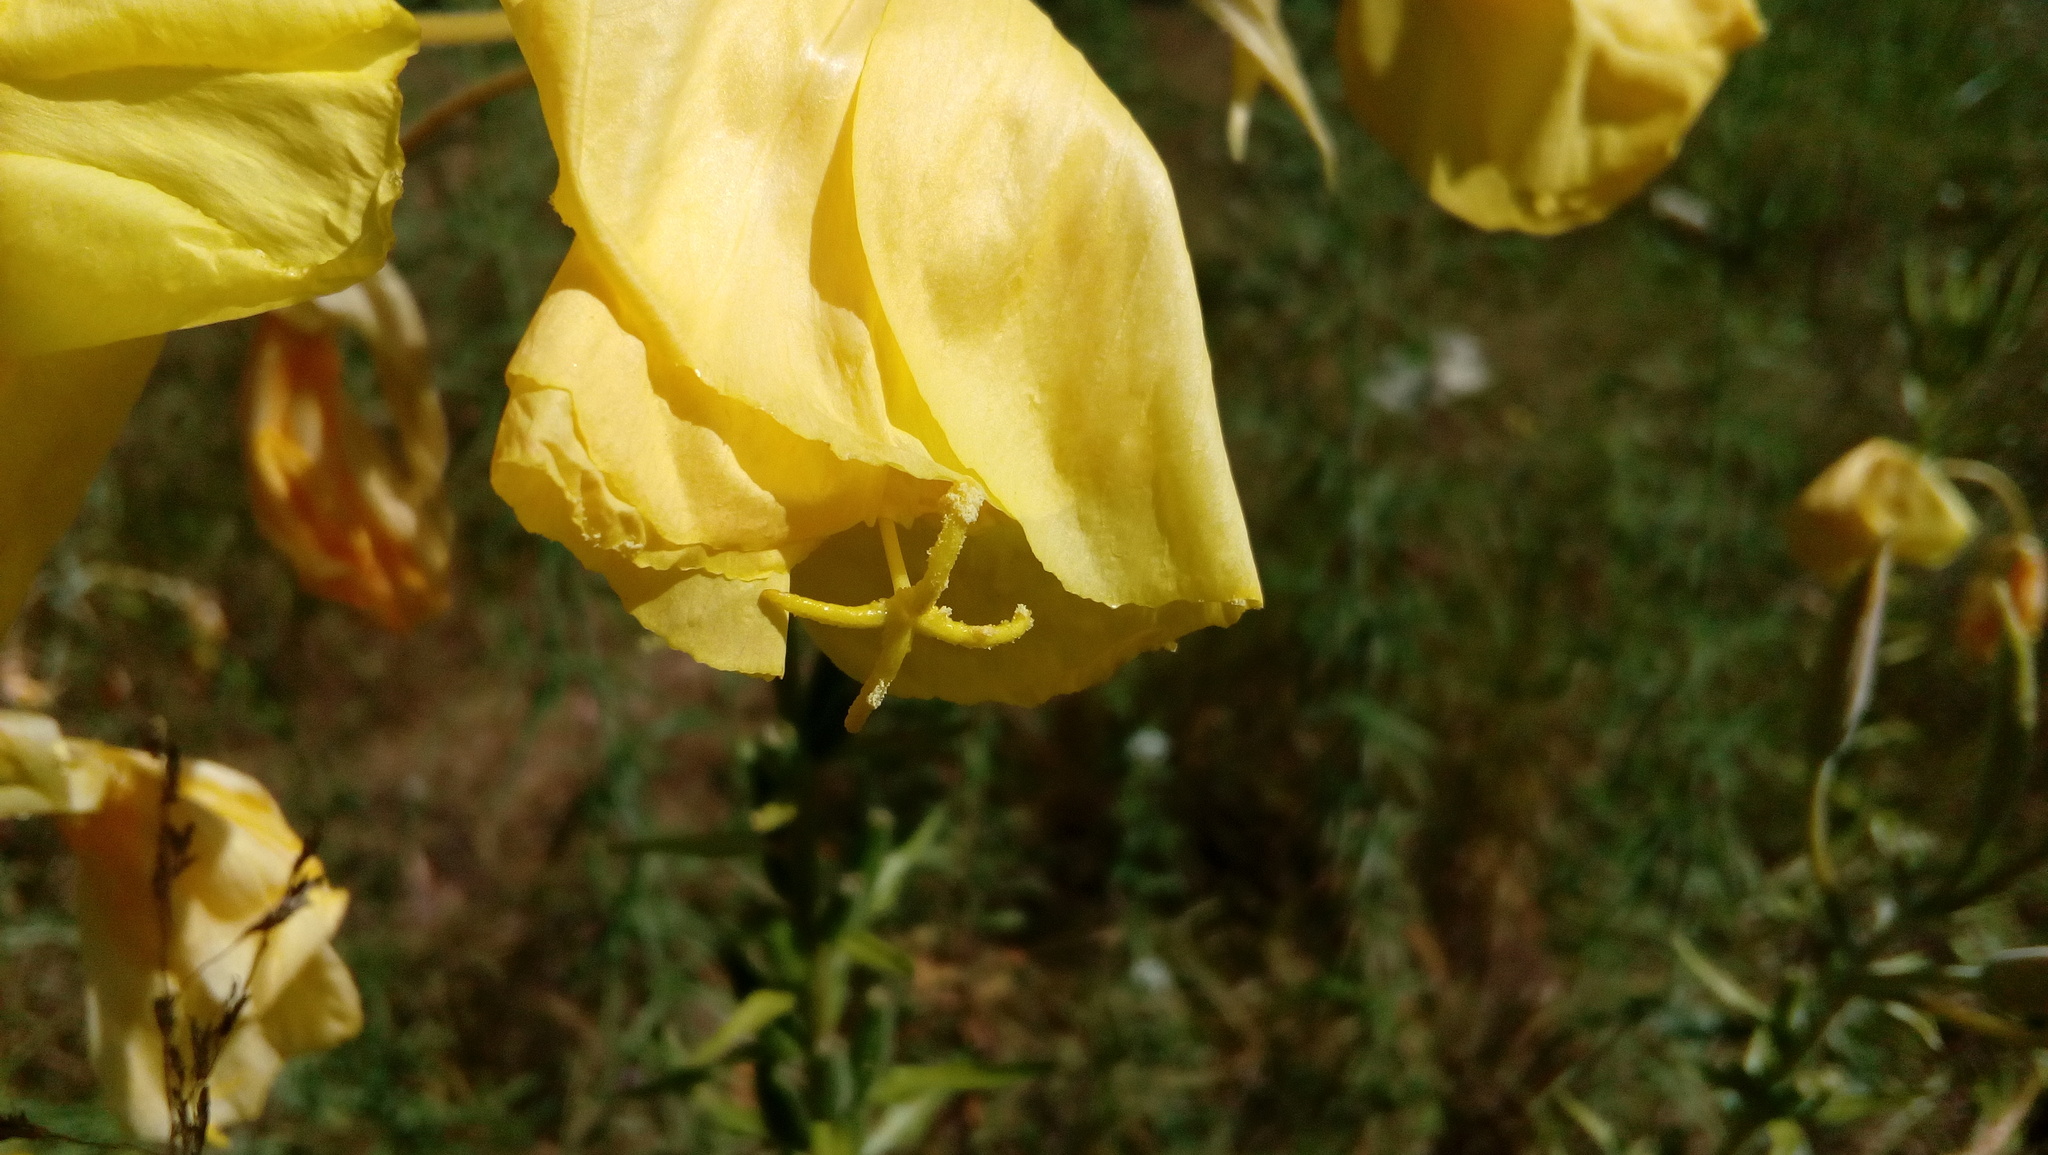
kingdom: Plantae
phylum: Tracheophyta
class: Magnoliopsida
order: Myrtales
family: Onagraceae
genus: Oenothera
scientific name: Oenothera oehlkersii
